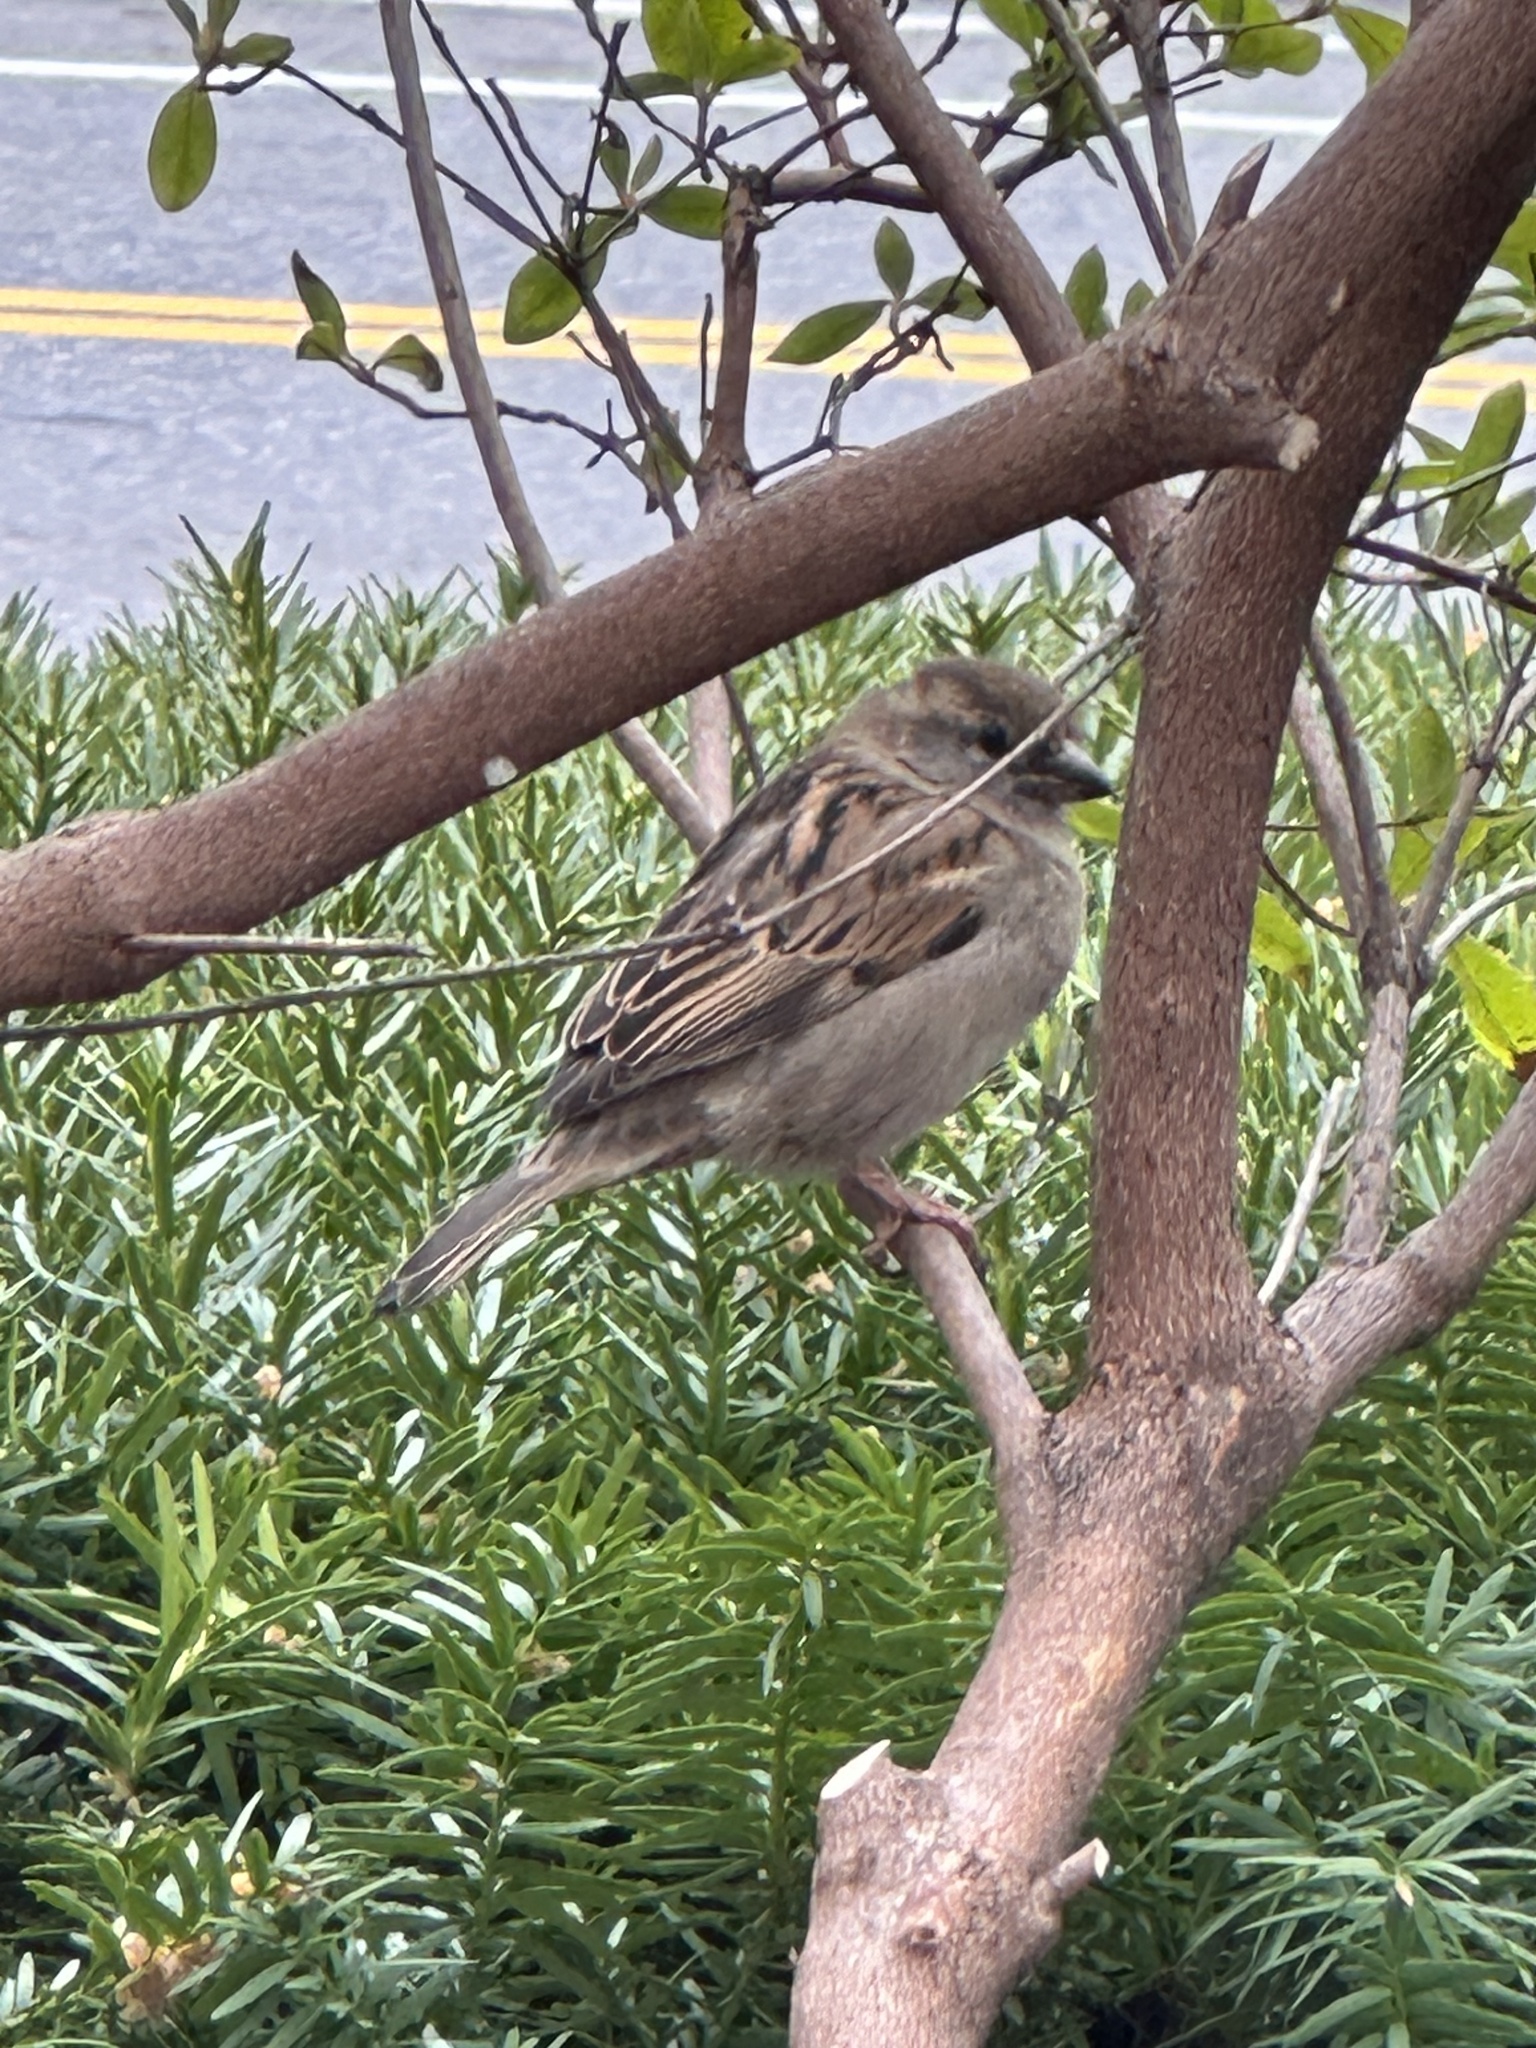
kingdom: Animalia
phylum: Chordata
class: Aves
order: Passeriformes
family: Passeridae
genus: Passer
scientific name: Passer domesticus
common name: House sparrow
